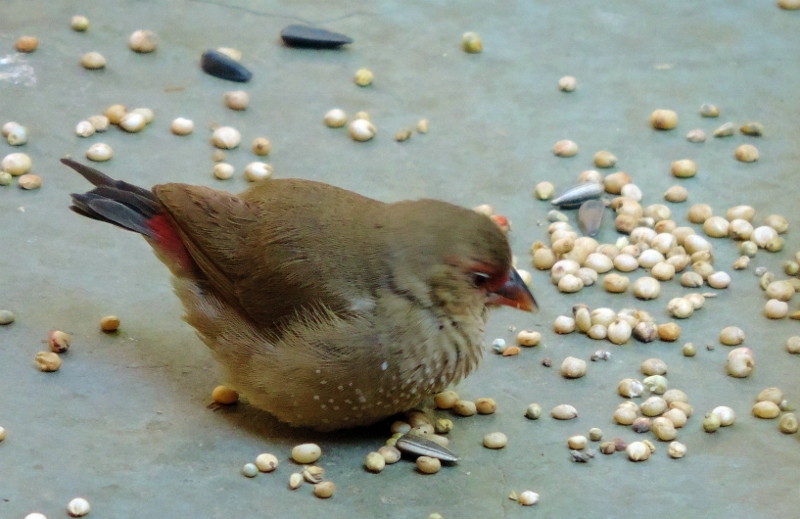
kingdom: Animalia
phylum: Chordata
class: Aves
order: Passeriformes
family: Estrildidae
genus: Lagonosticta
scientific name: Lagonosticta senegala
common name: Red-billed firefinch
